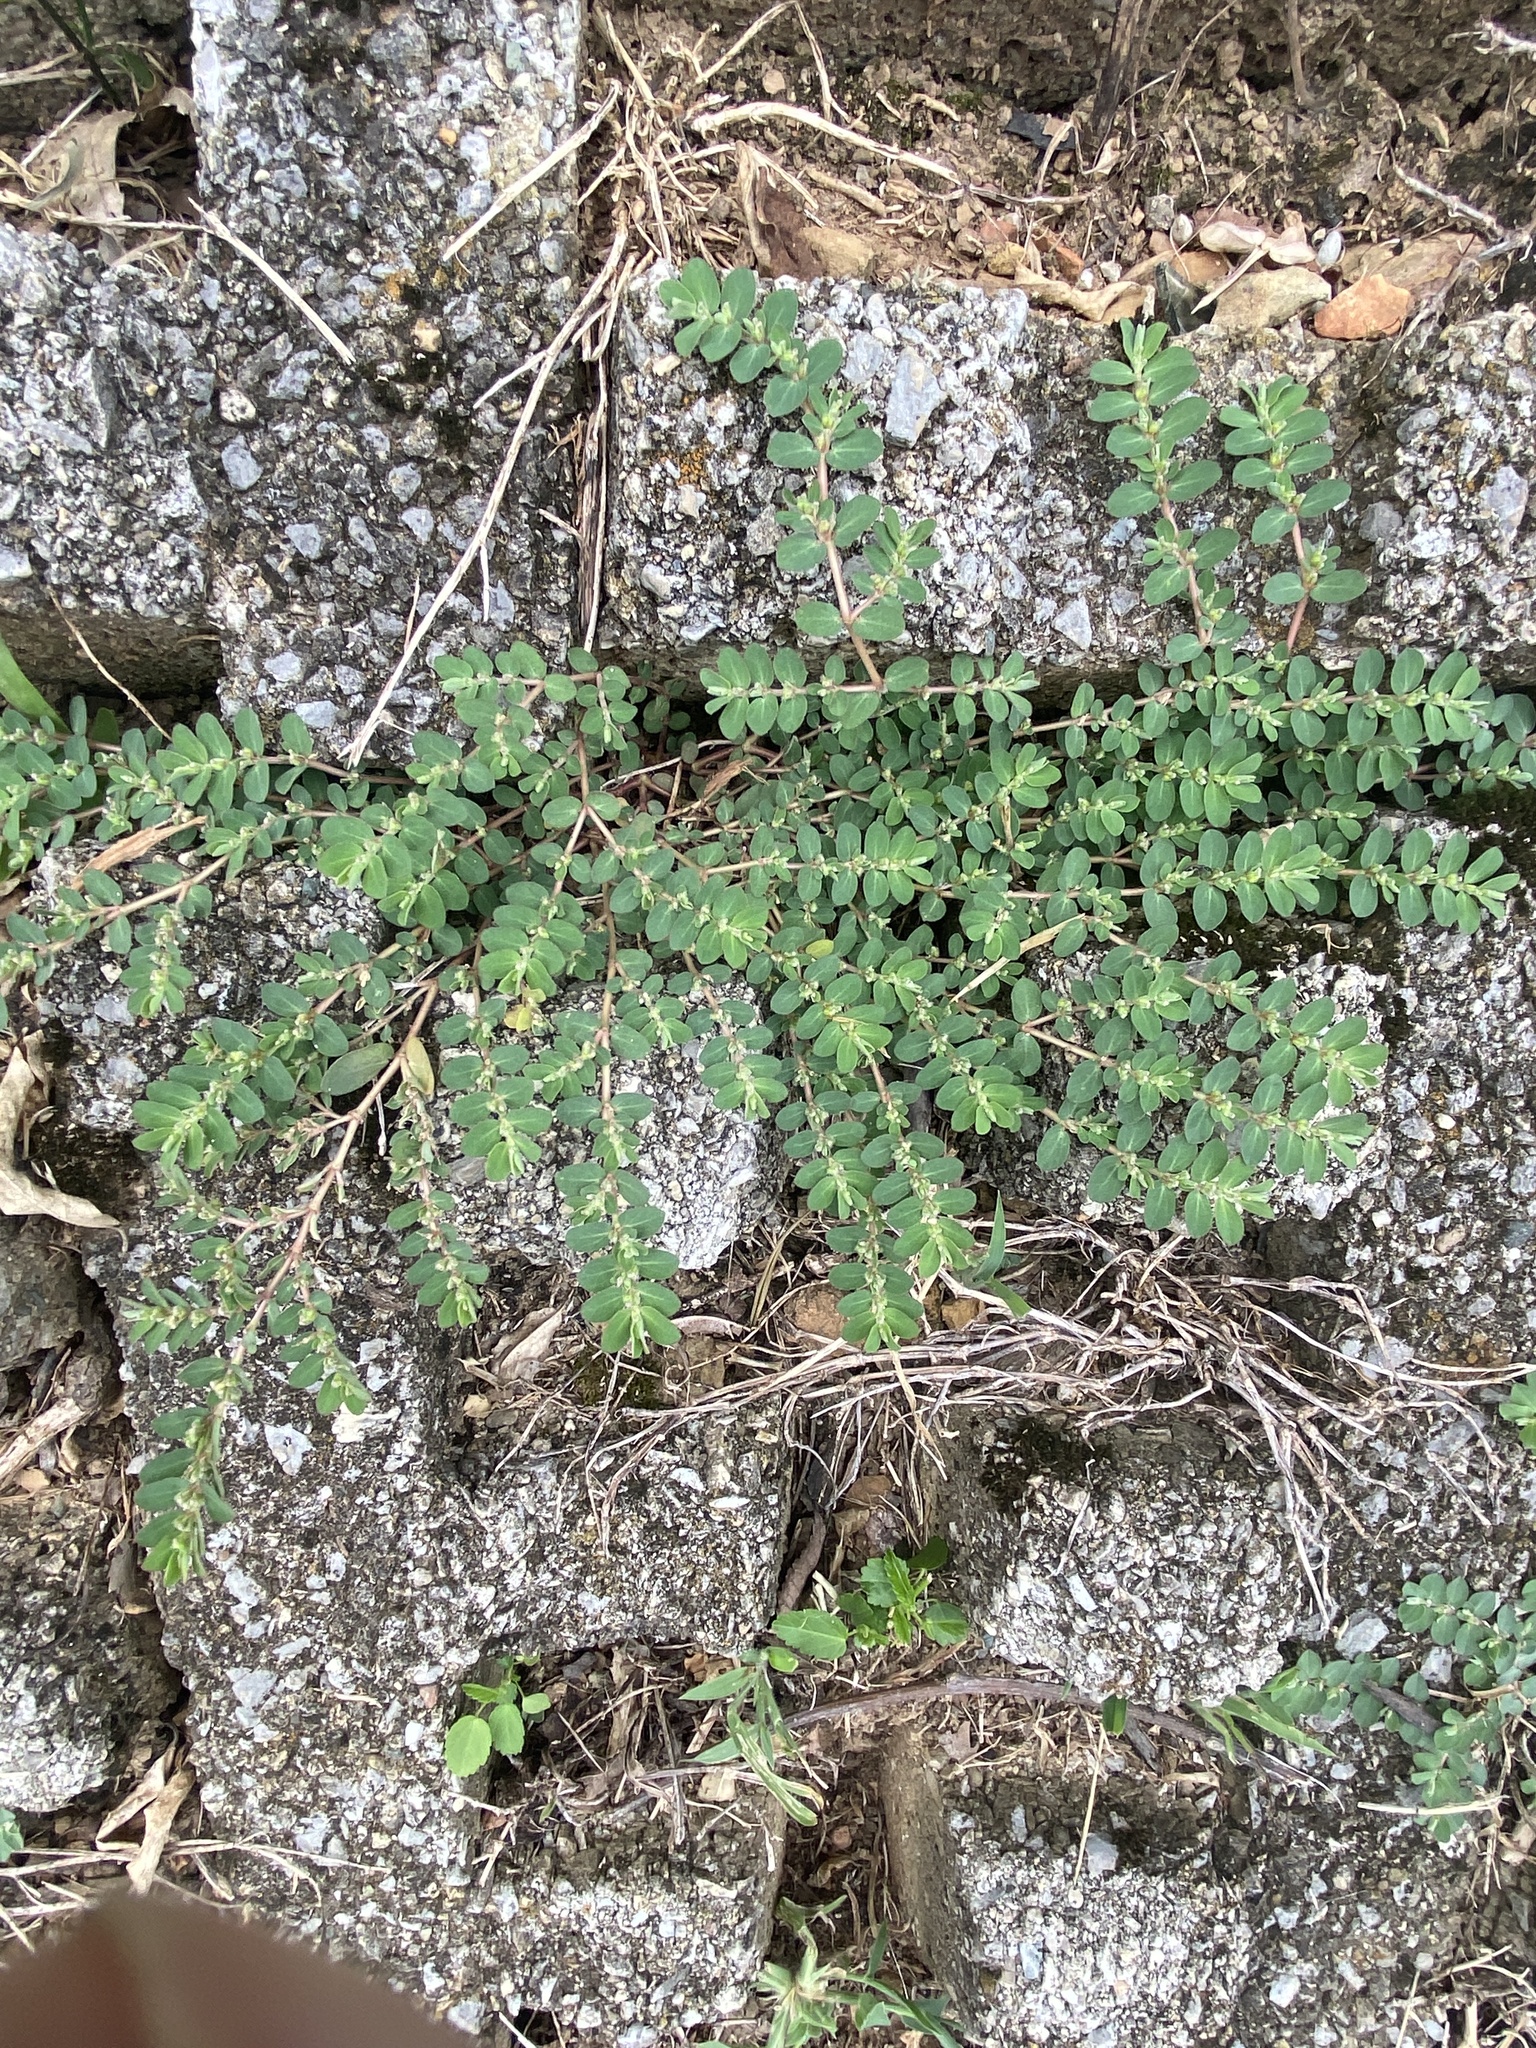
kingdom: Plantae
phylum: Tracheophyta
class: Magnoliopsida
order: Malpighiales
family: Euphorbiaceae
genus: Euphorbia
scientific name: Euphorbia prostrata
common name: Prostrate sandmat
